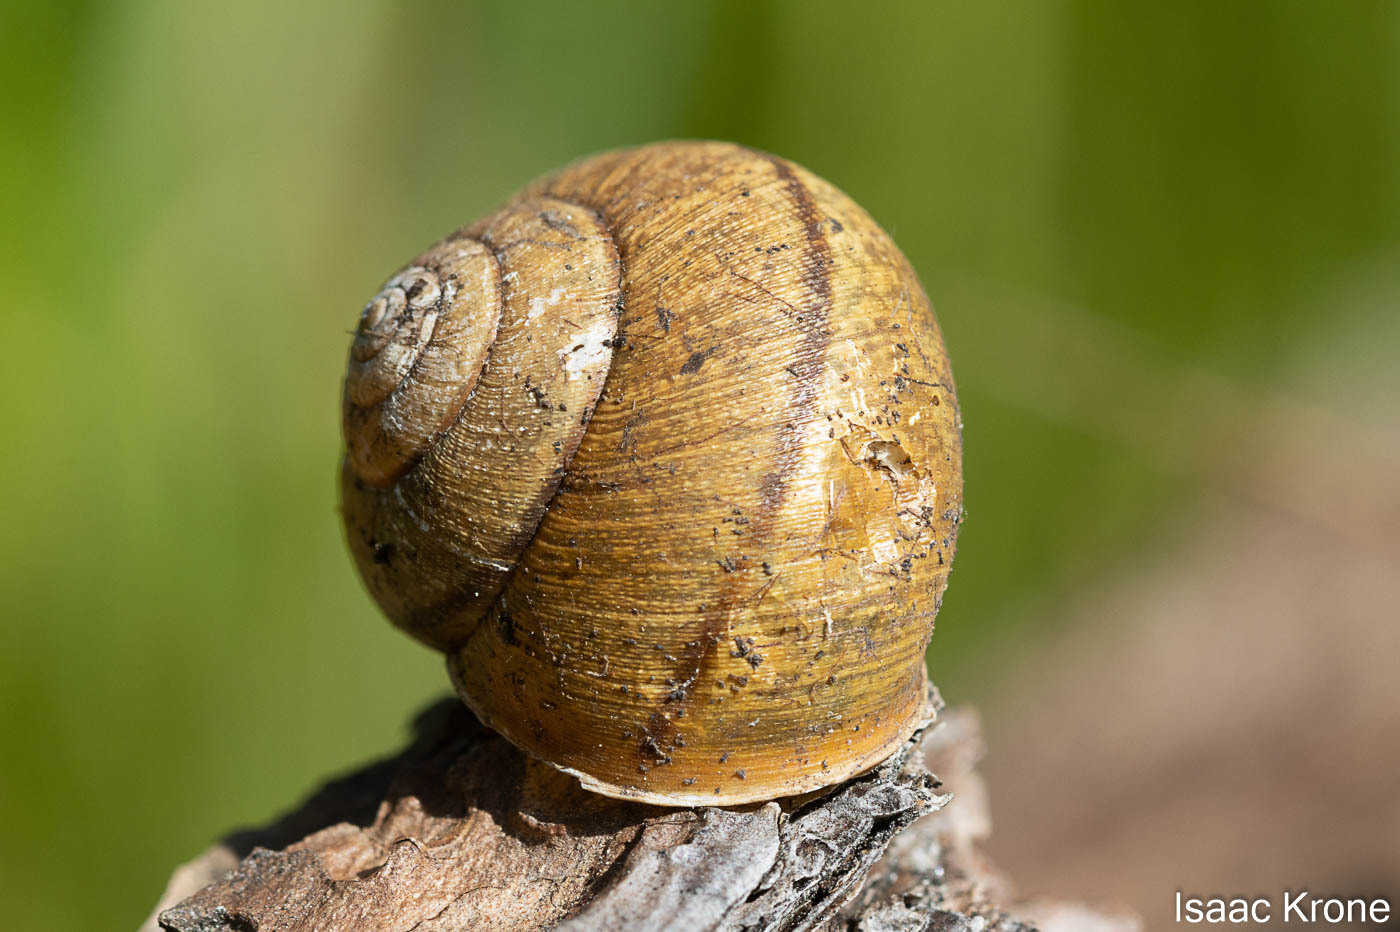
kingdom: Animalia
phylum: Mollusca
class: Gastropoda
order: Stylommatophora
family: Xanthonychidae
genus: Helminthoglypta
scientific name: Helminthoglypta nickliniana
